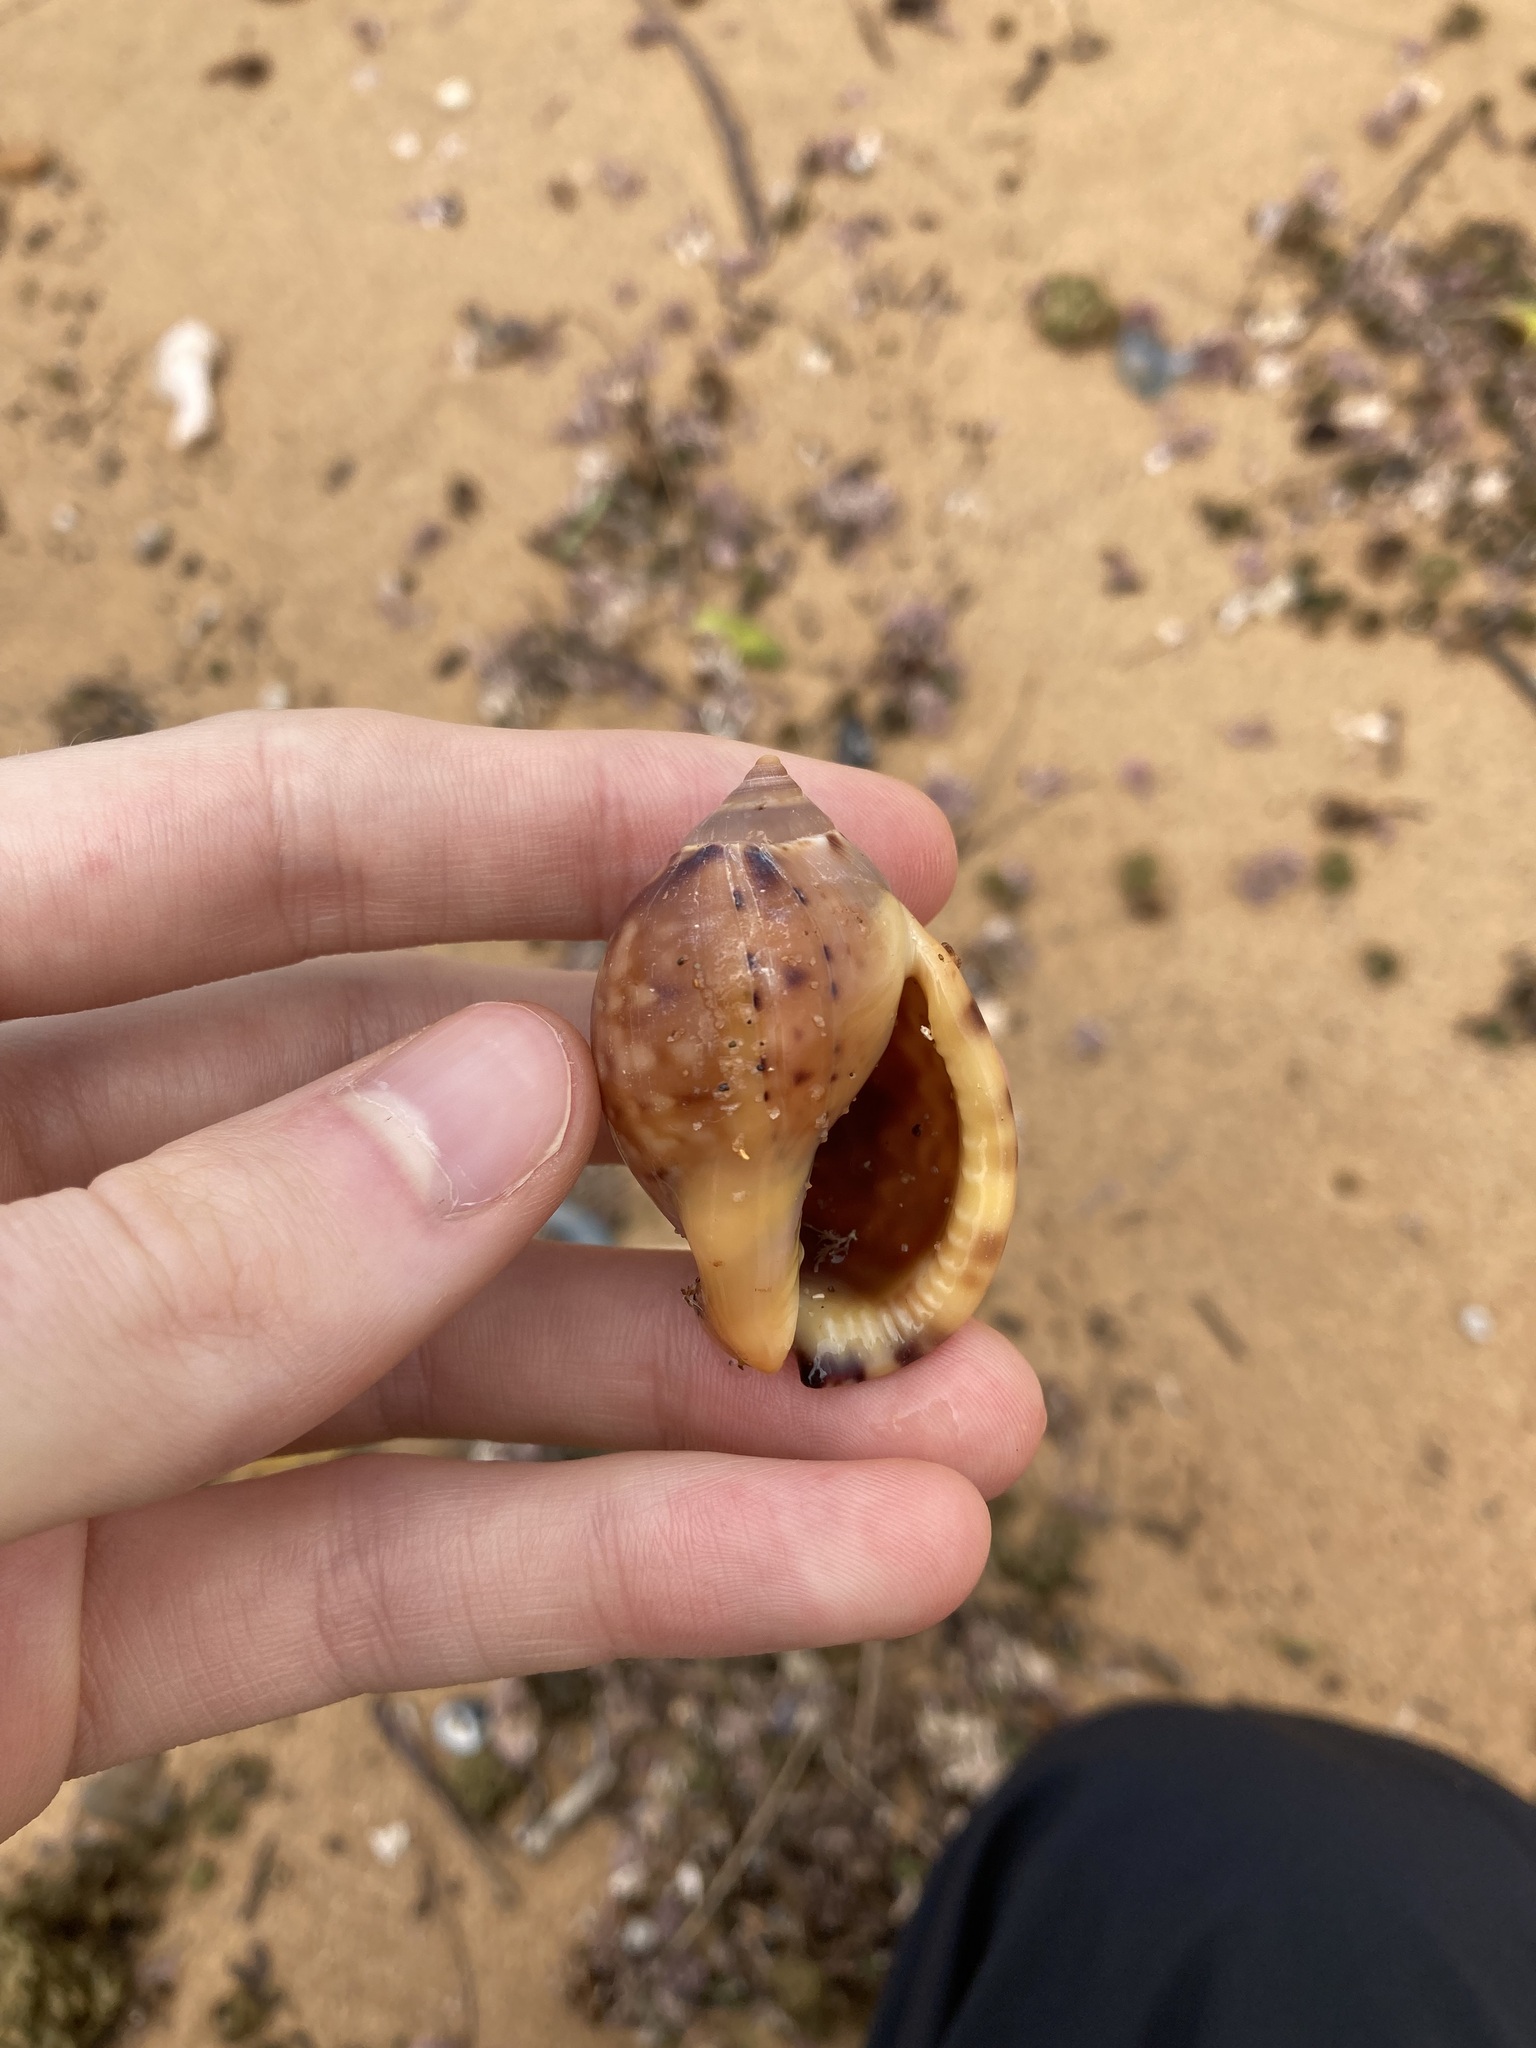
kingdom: Animalia
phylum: Mollusca
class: Gastropoda
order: Littorinimorpha
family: Cassidae
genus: Semicassis
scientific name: Semicassis labiata
